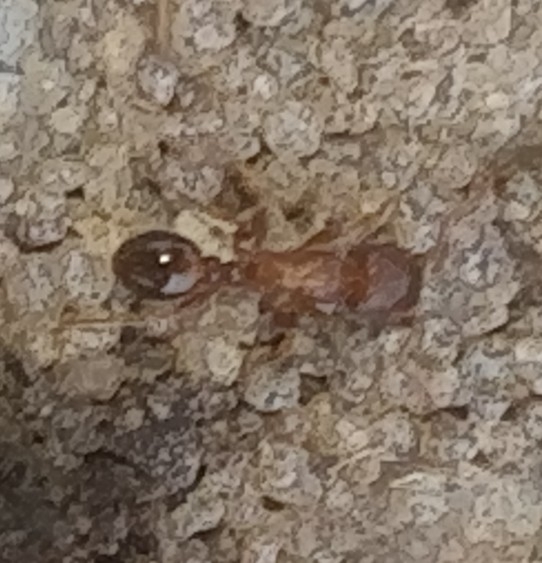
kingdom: Animalia
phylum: Arthropoda
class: Insecta
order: Hymenoptera
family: Formicidae
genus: Tetramorium
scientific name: Tetramorium immigrans
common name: Pavement ant
